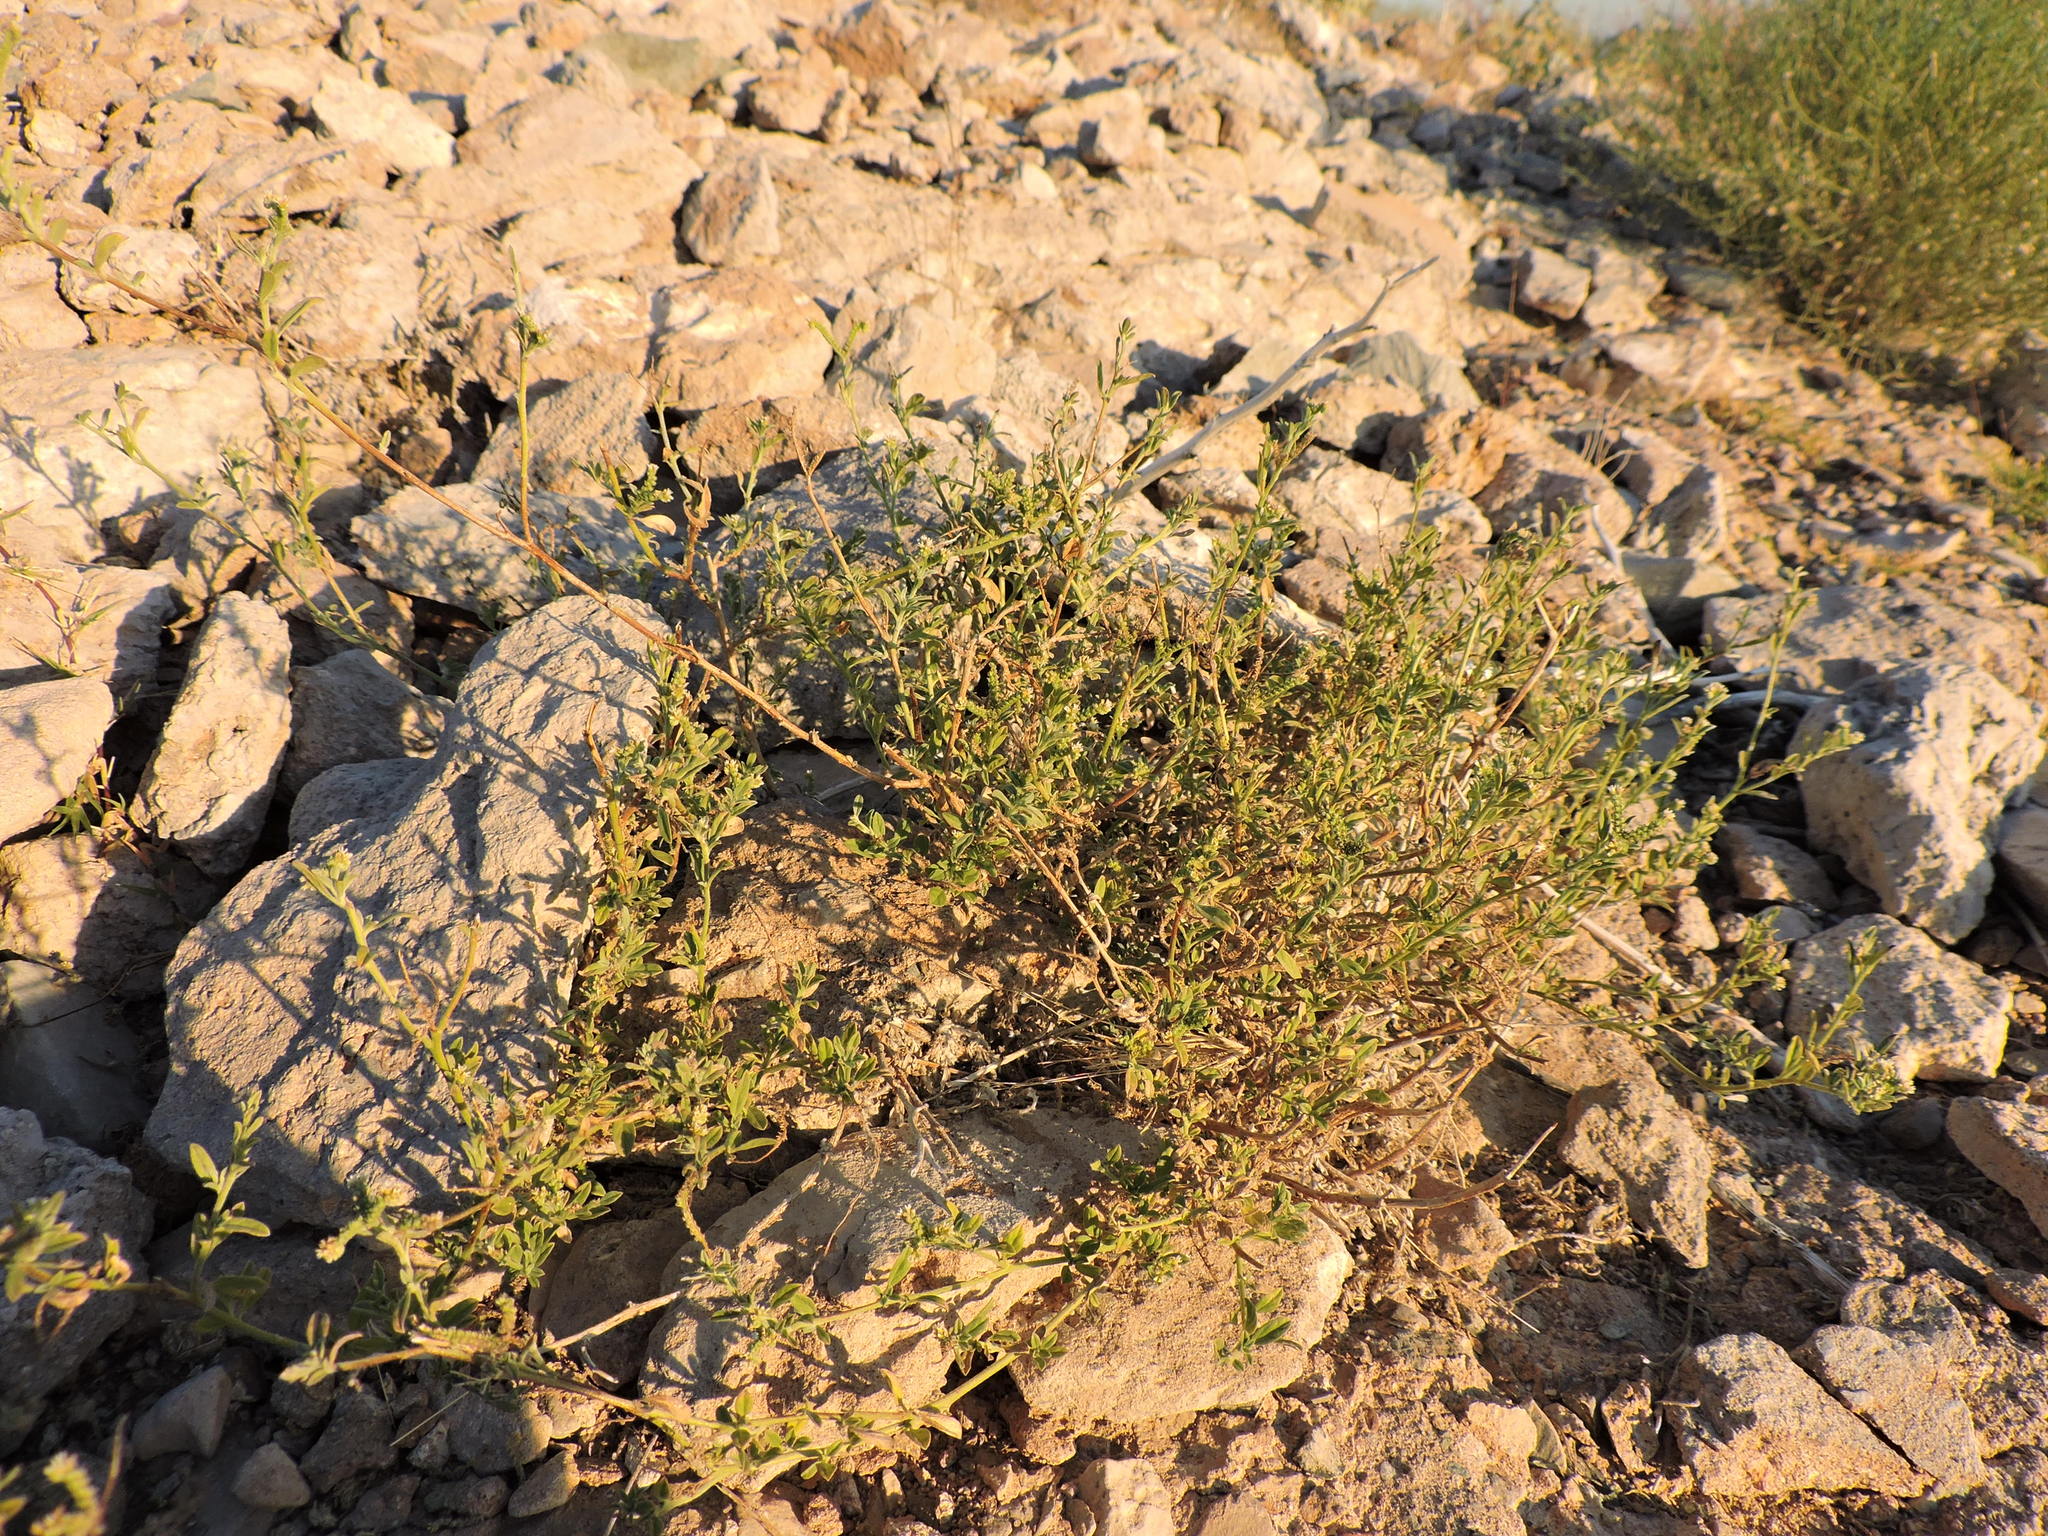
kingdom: Plantae
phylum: Tracheophyta
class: Magnoliopsida
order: Boraginales
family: Heliotropiaceae
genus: Euploca
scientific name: Euploca procumbens
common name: Fourspike heliotrope
